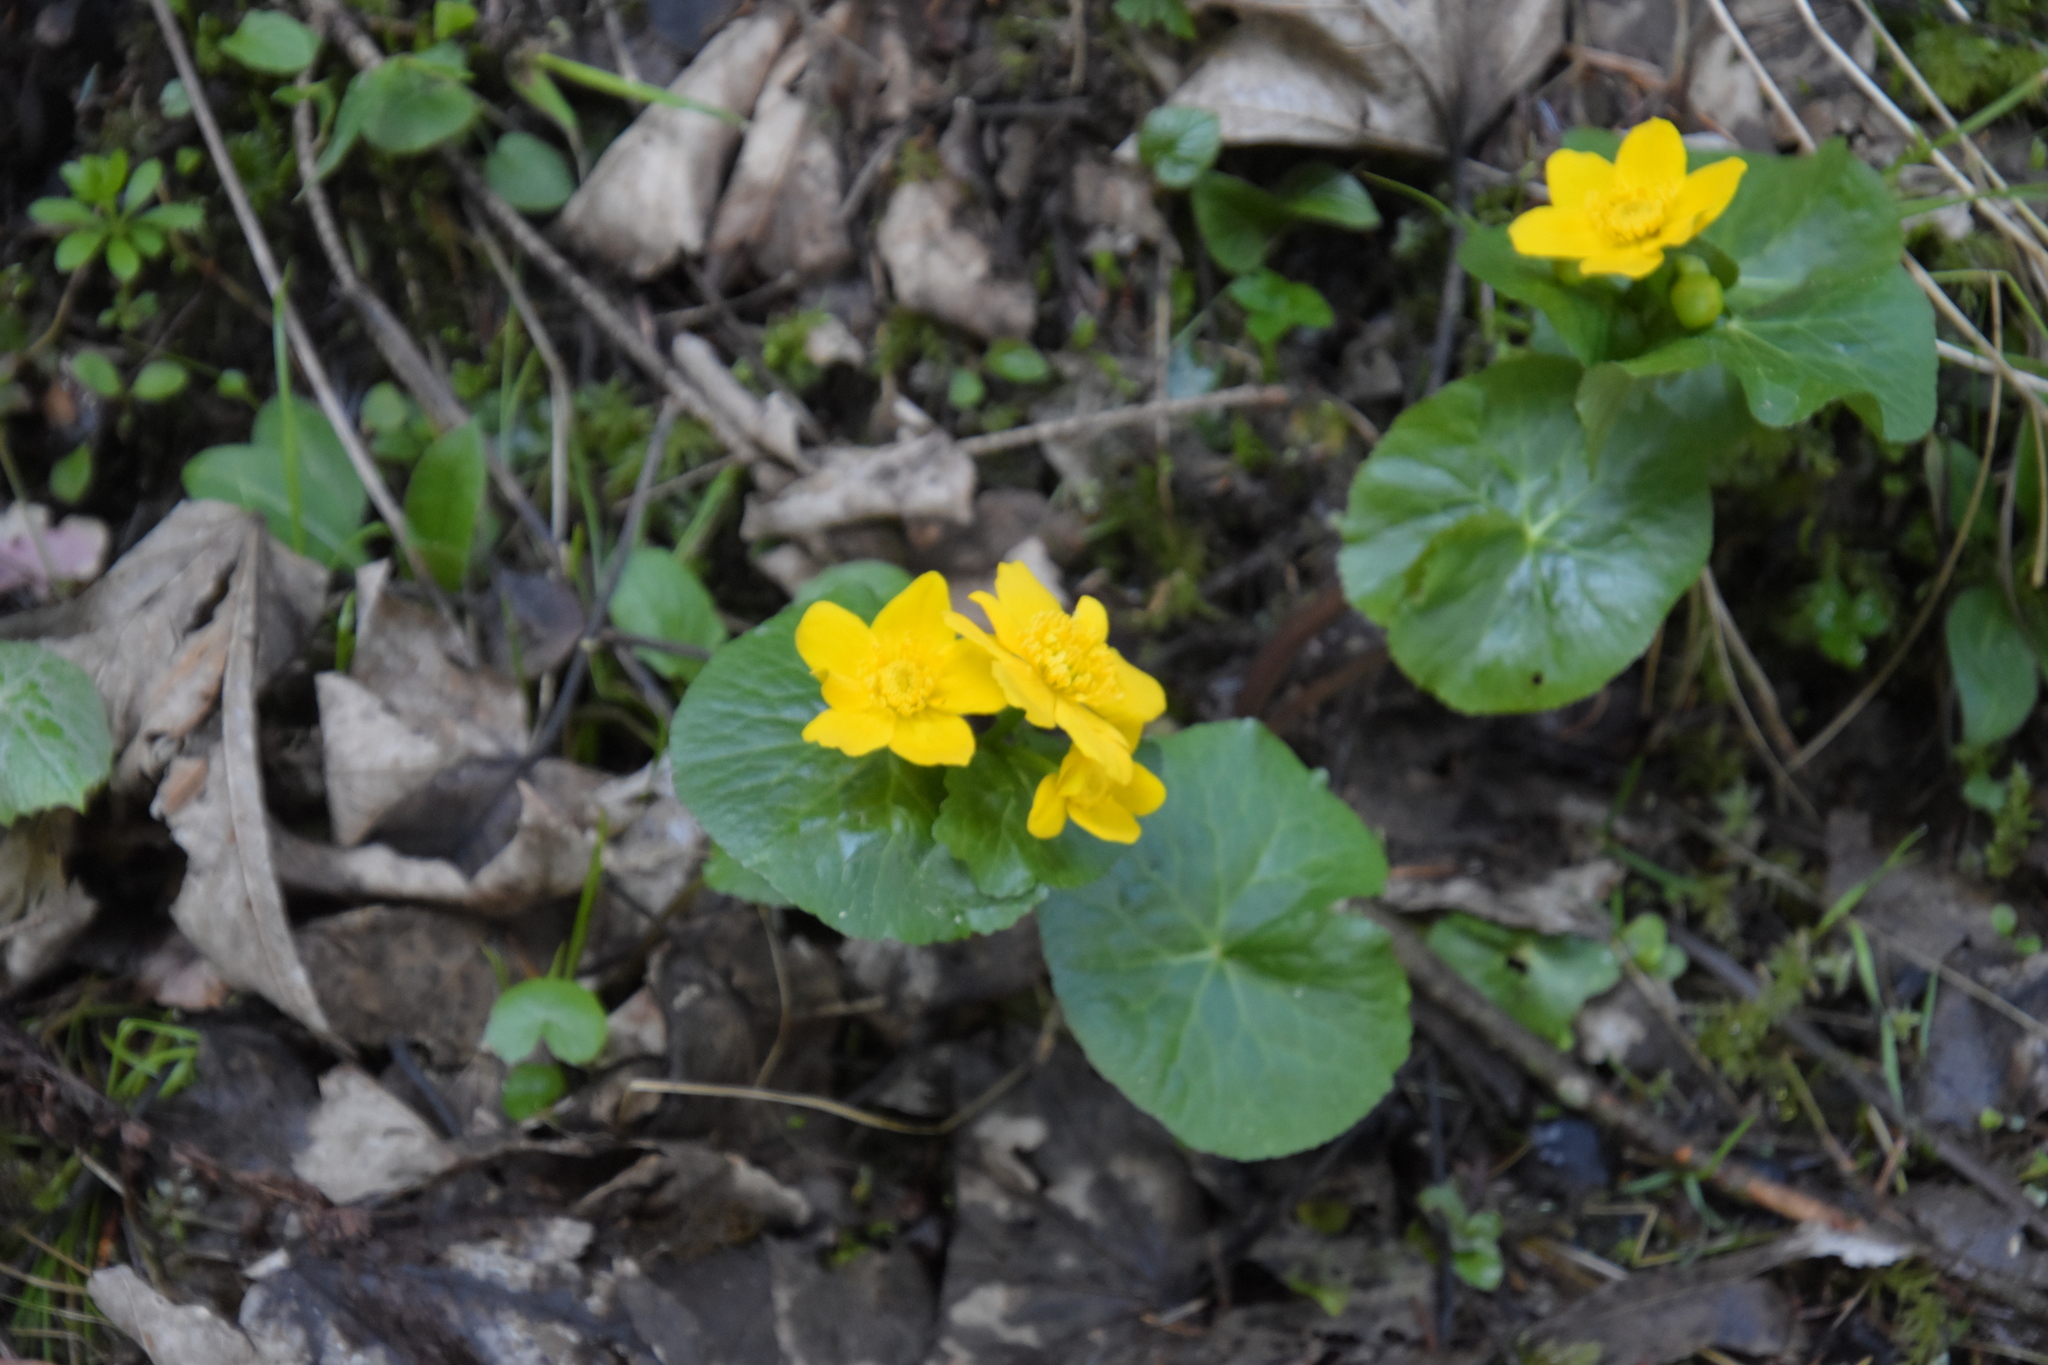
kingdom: Plantae
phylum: Tracheophyta
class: Magnoliopsida
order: Ranunculales
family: Ranunculaceae
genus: Caltha
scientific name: Caltha palustris
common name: Marsh marigold
